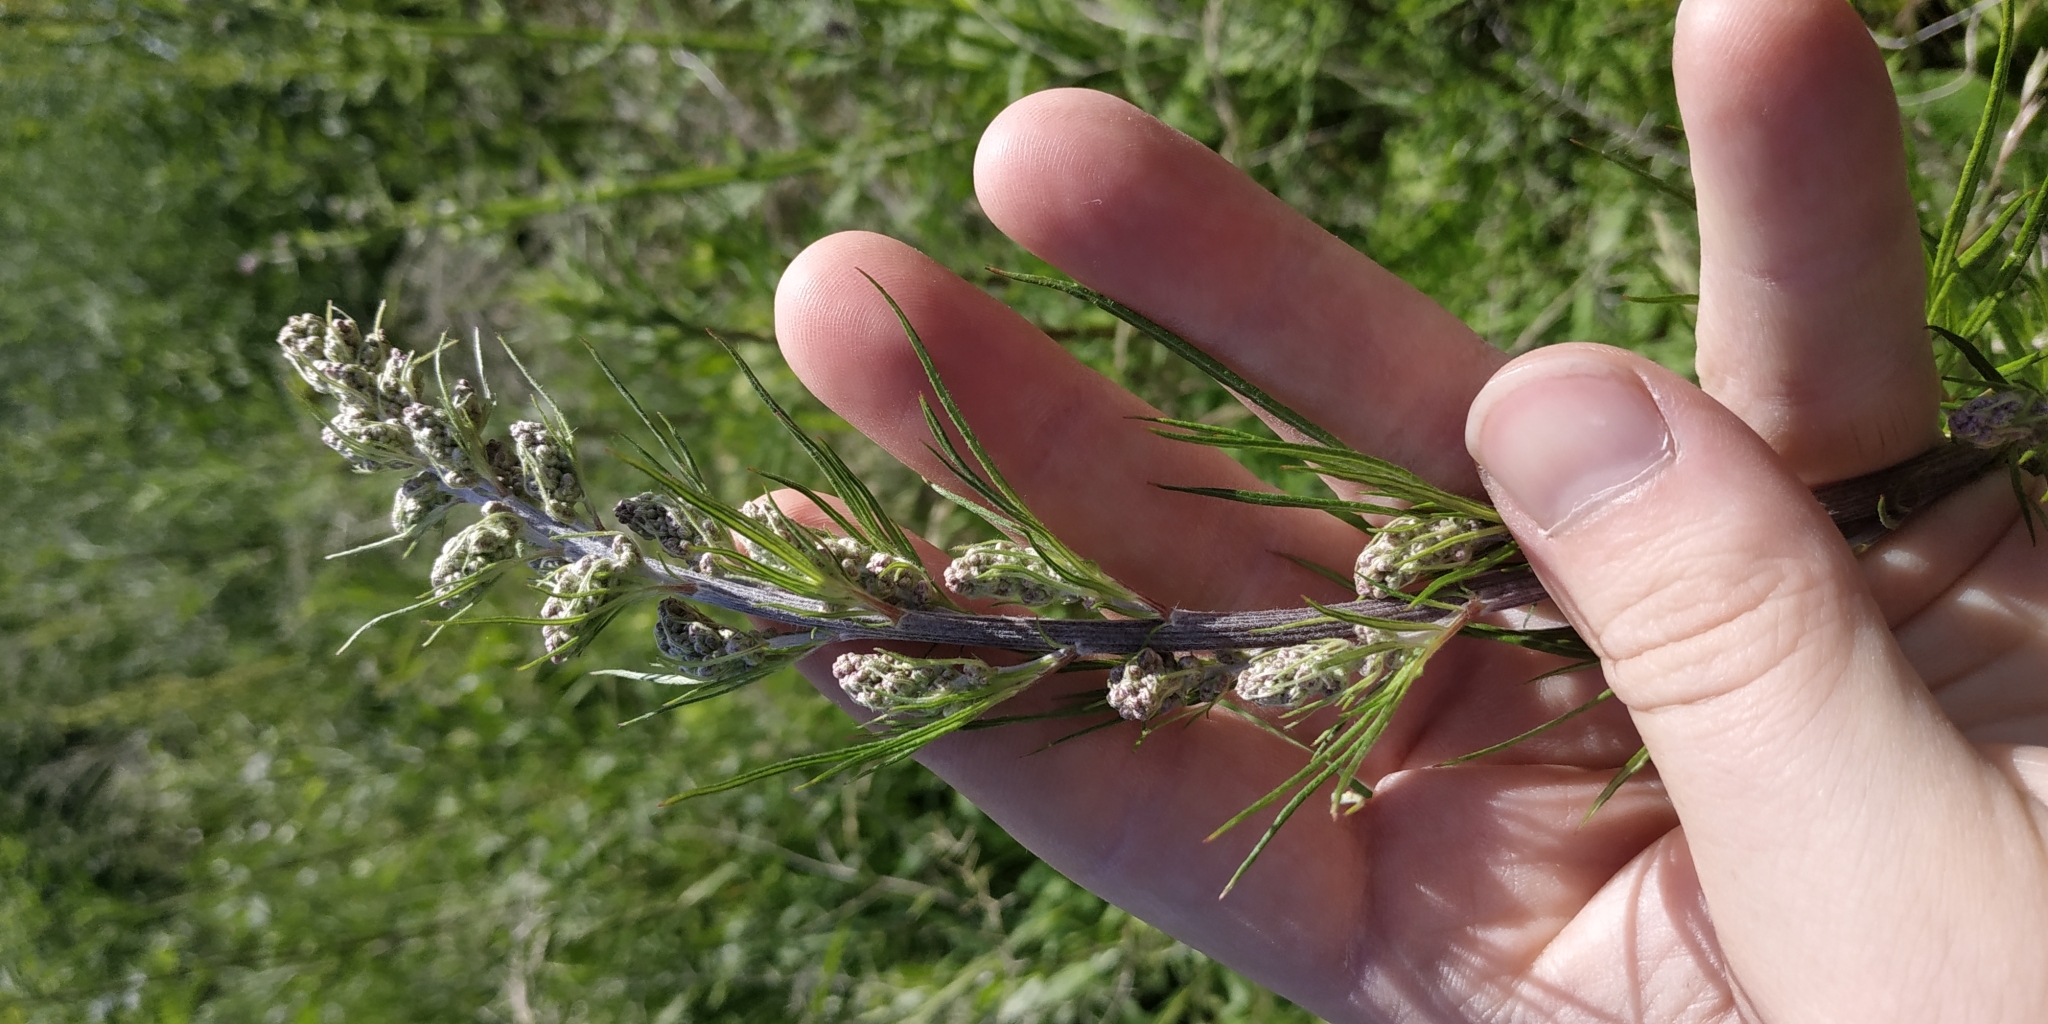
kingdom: Plantae
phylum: Tracheophyta
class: Magnoliopsida
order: Asterales
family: Asteraceae
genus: Artemisia
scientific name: Artemisia vulgaris
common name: Mugwort
